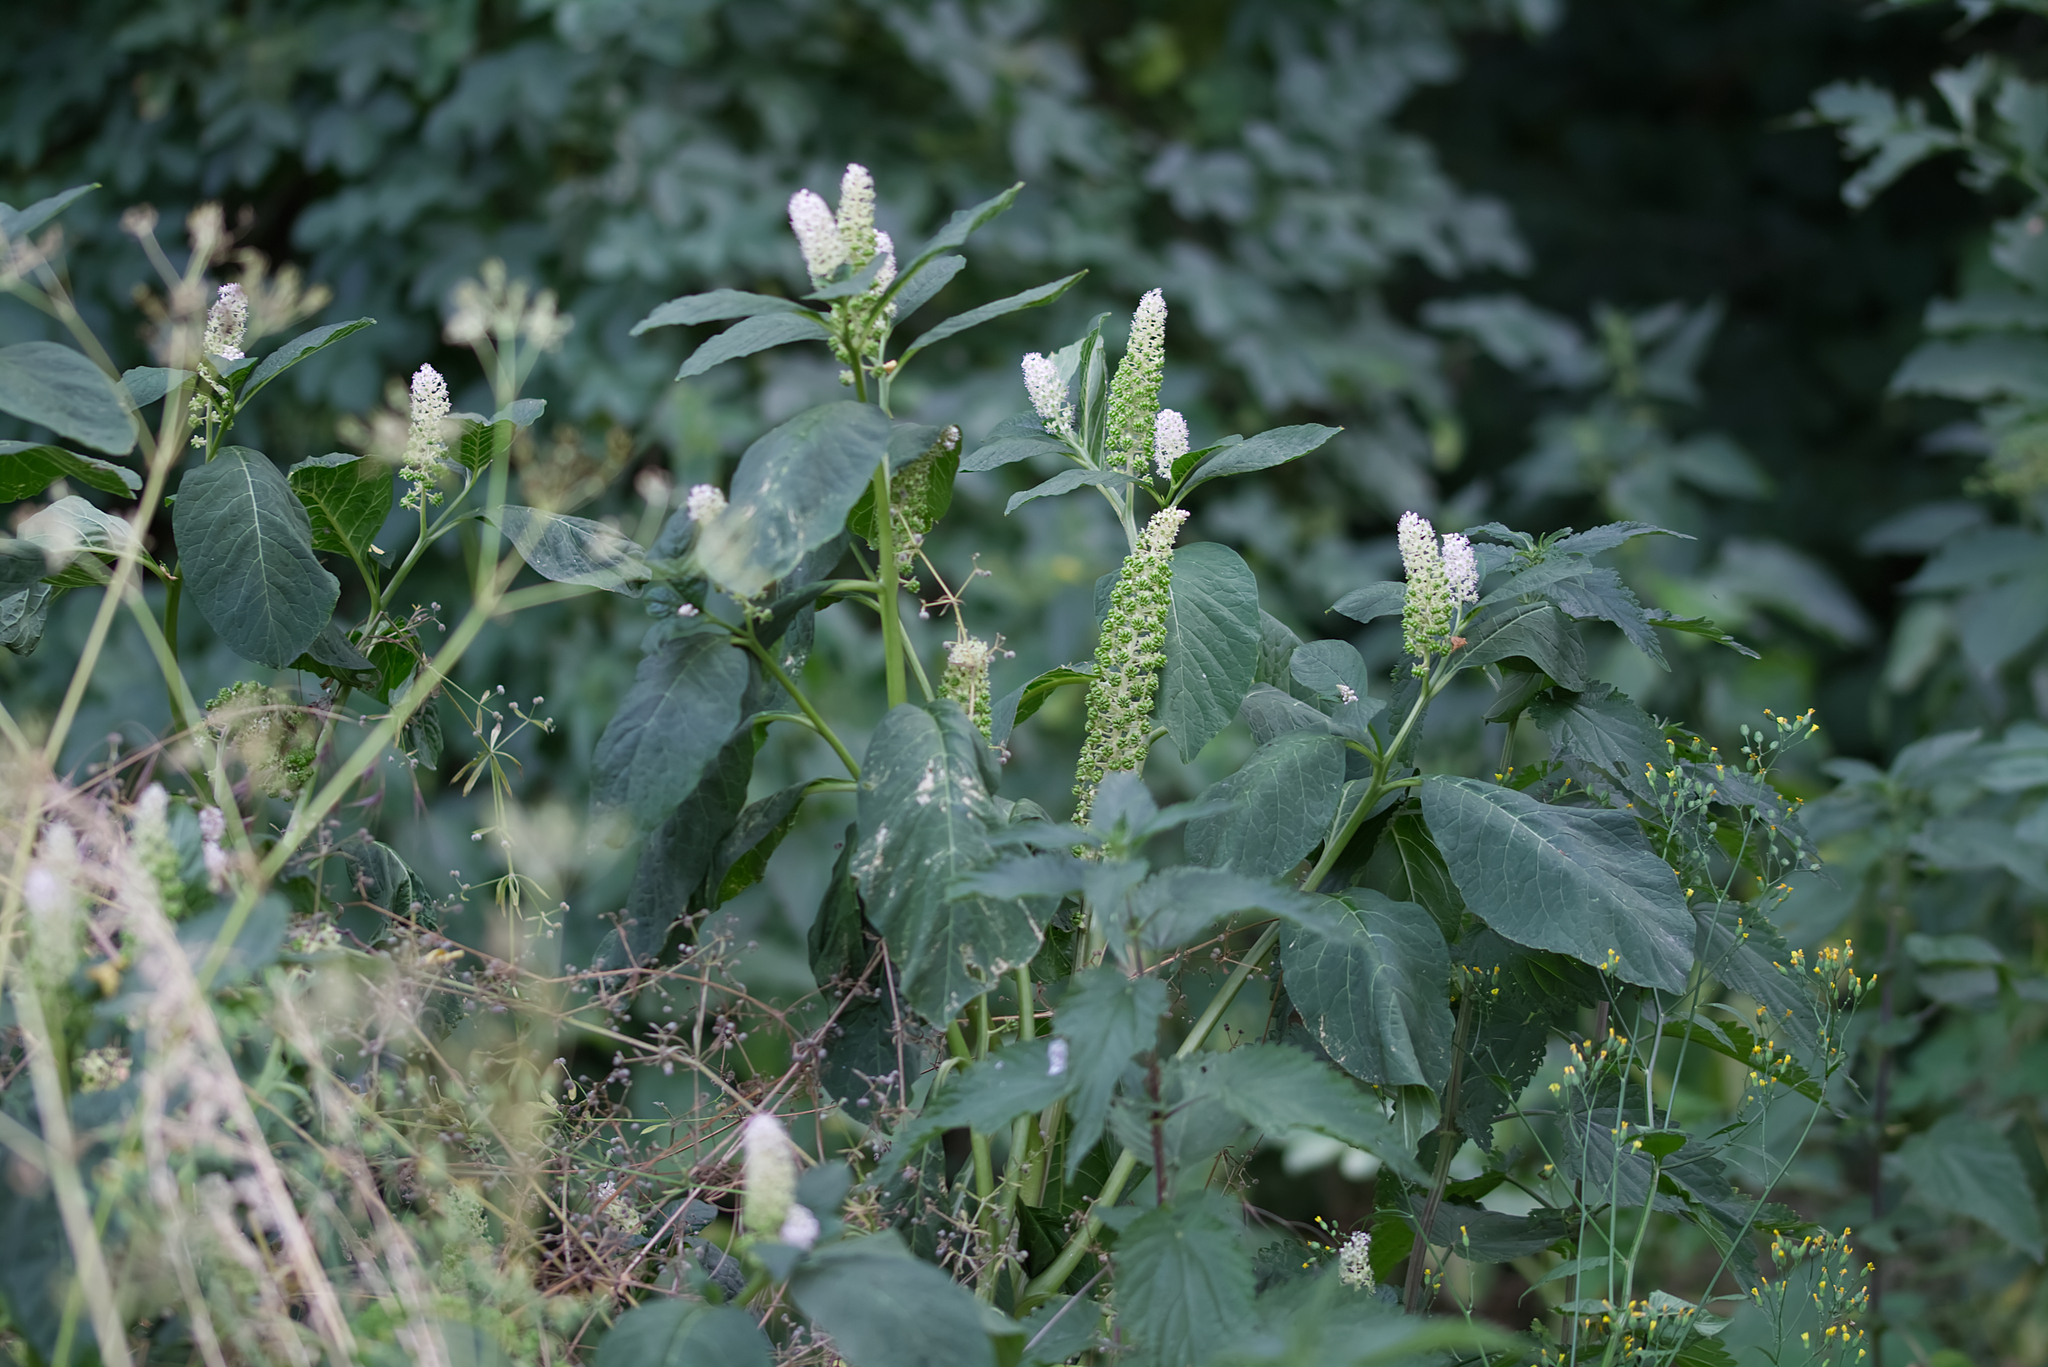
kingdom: Plantae
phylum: Tracheophyta
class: Magnoliopsida
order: Caryophyllales
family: Phytolaccaceae
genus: Phytolacca
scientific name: Phytolacca acinosa
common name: Indian pokeweed
